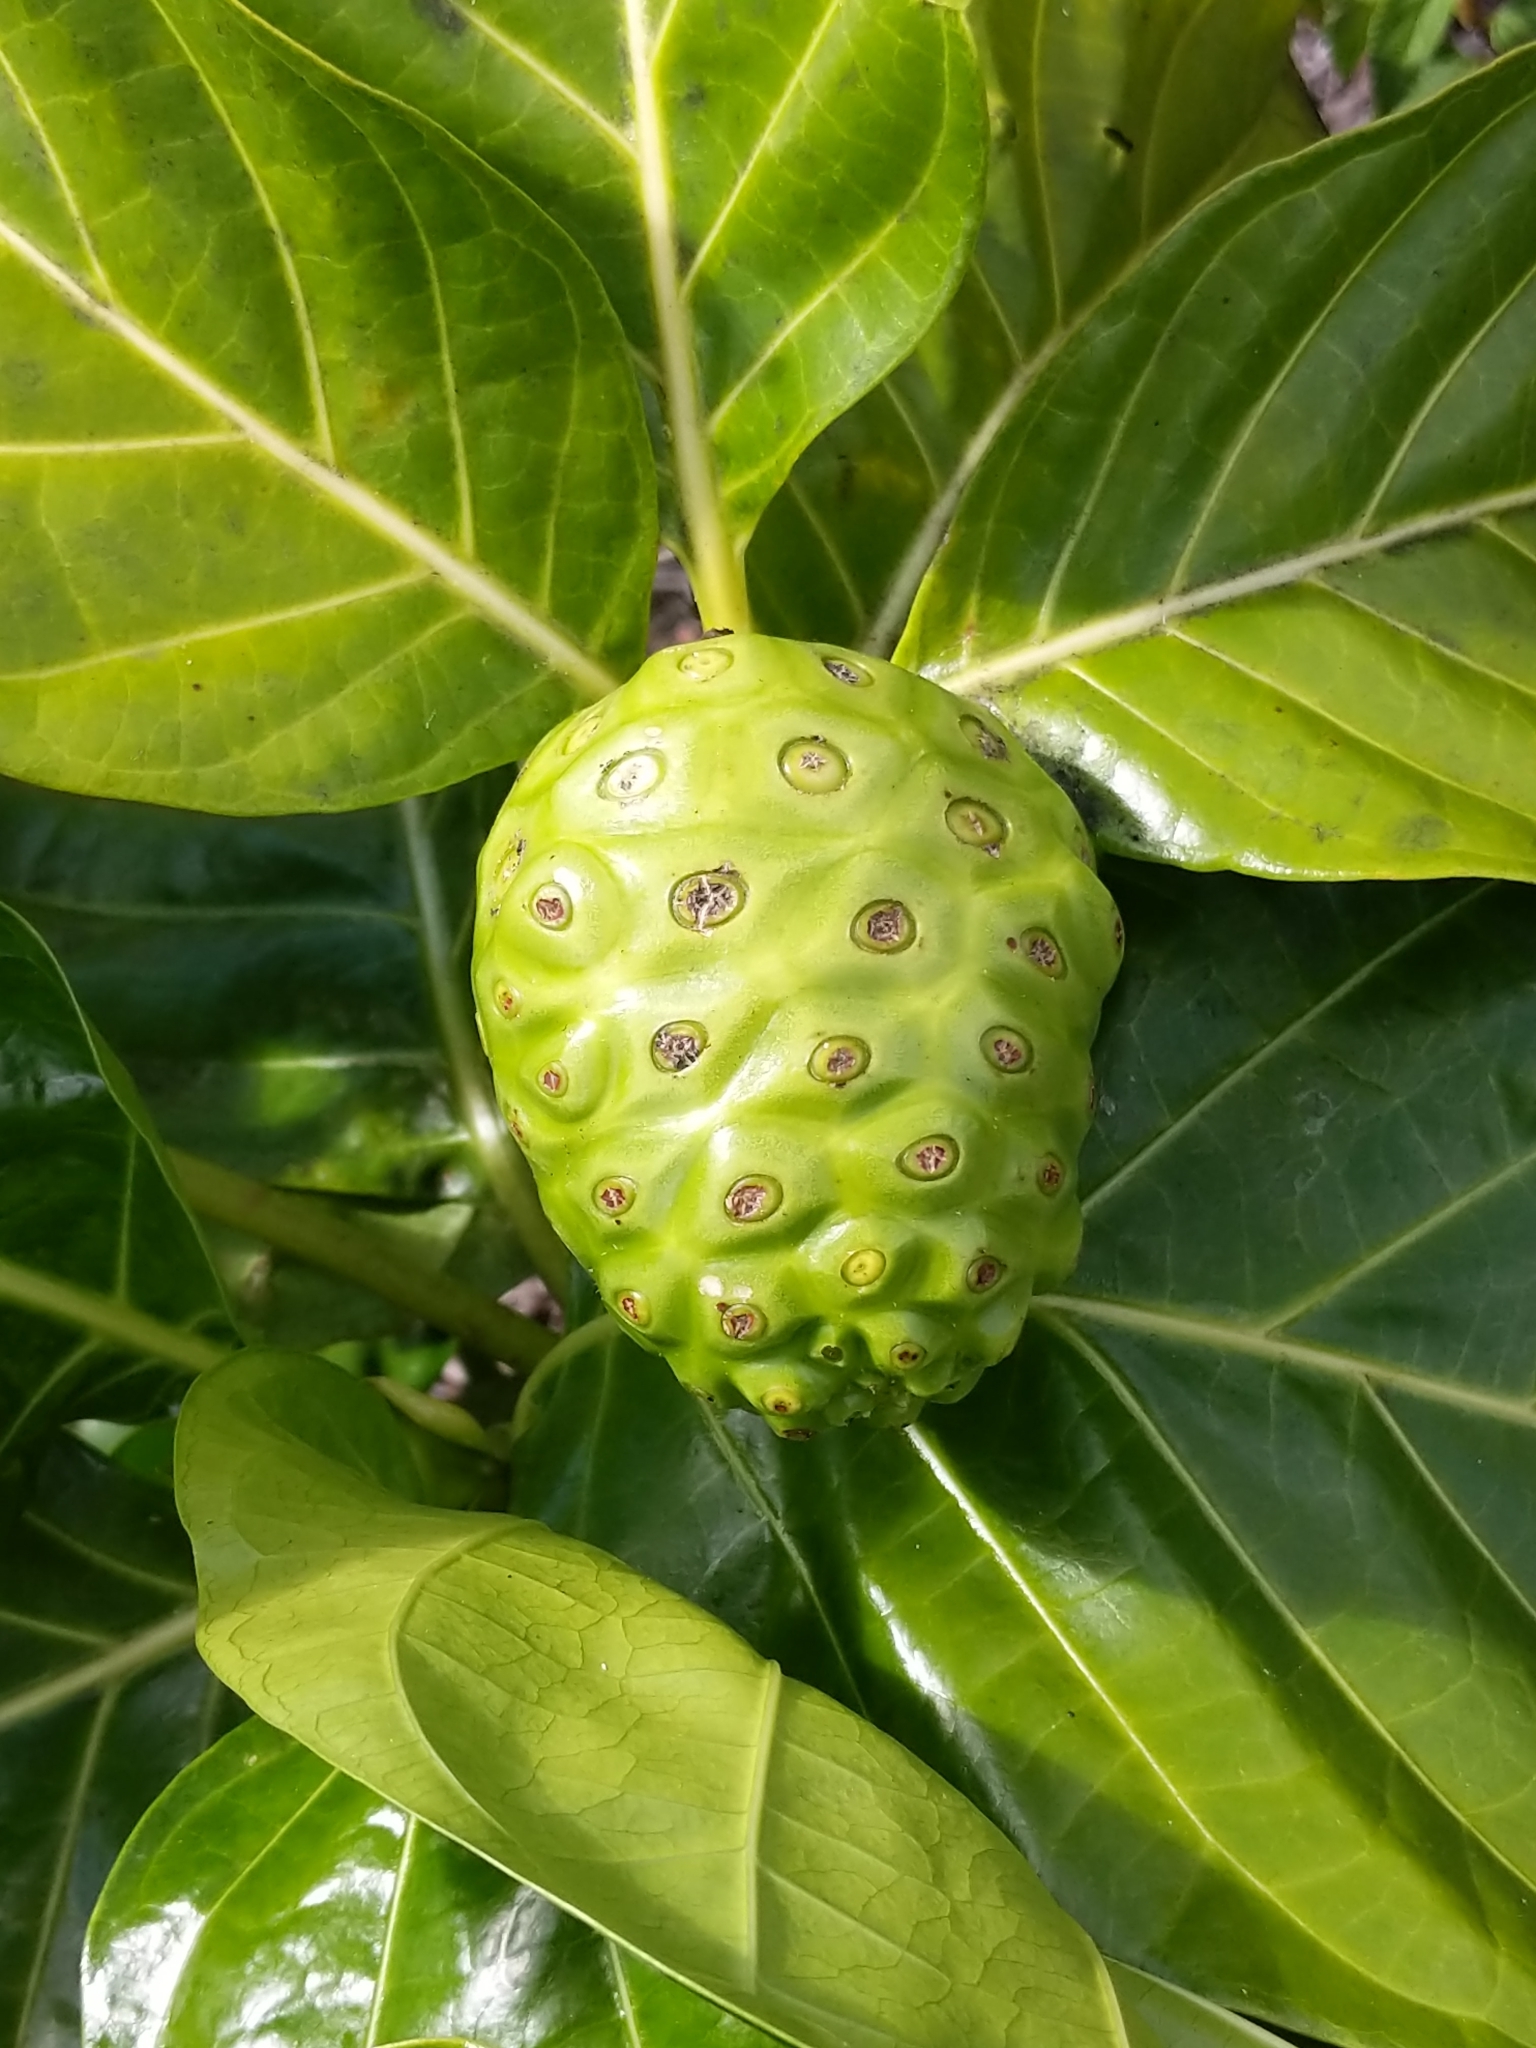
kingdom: Plantae
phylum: Tracheophyta
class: Magnoliopsida
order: Gentianales
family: Rubiaceae
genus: Morinda
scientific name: Morinda citrifolia
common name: Indian-mulberry
